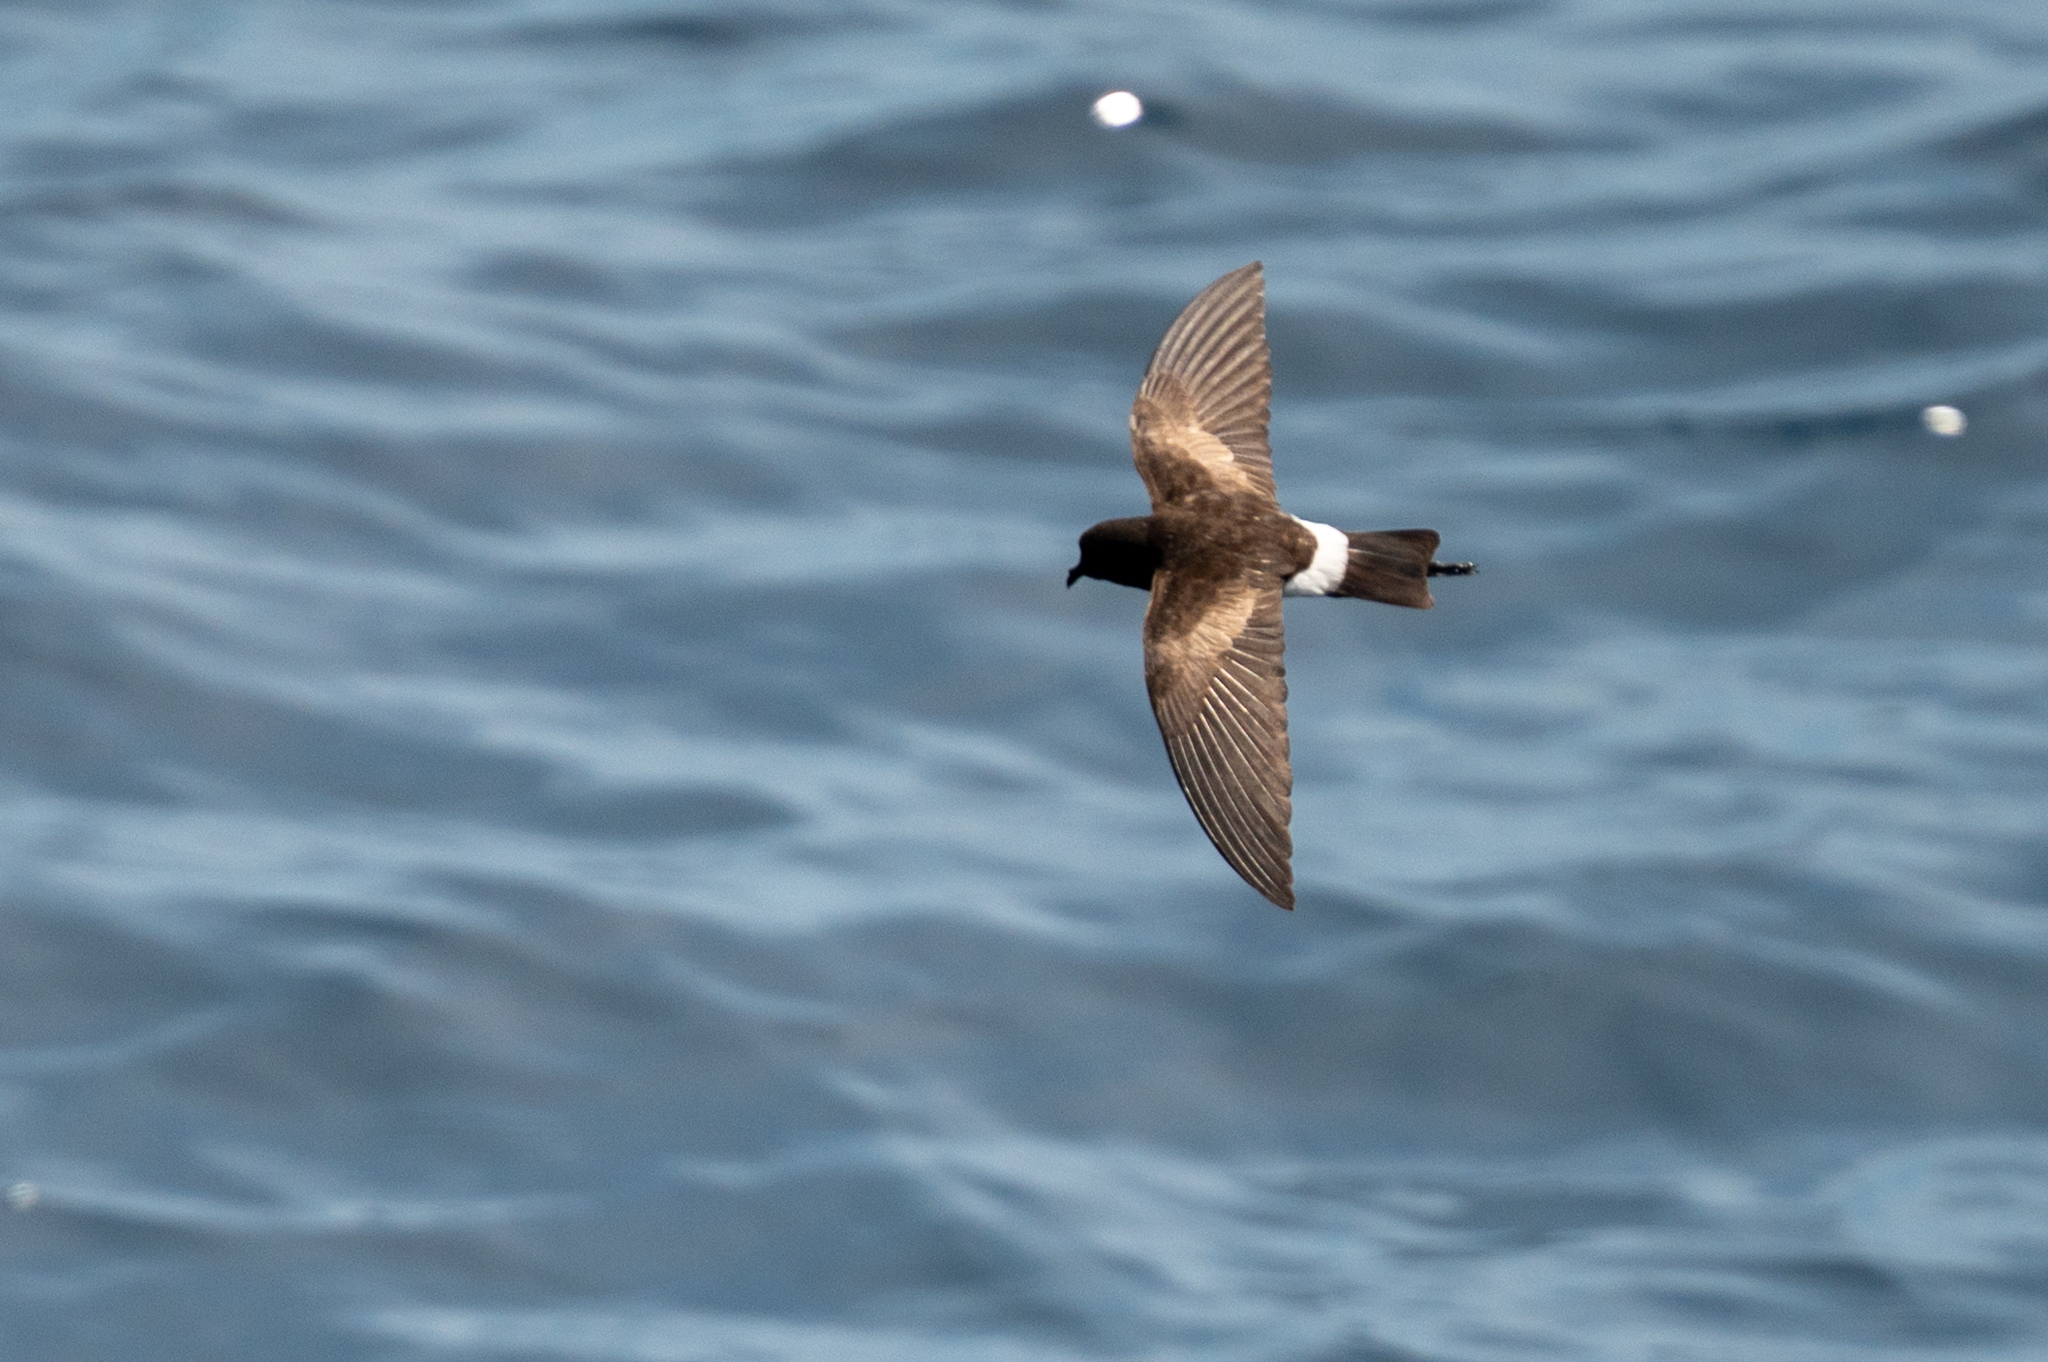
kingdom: Animalia
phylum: Chordata
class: Aves
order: Procellariiformes
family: Hydrobatidae
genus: Oceanites
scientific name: Oceanites gracilis
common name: Elliot's storm-petrel
